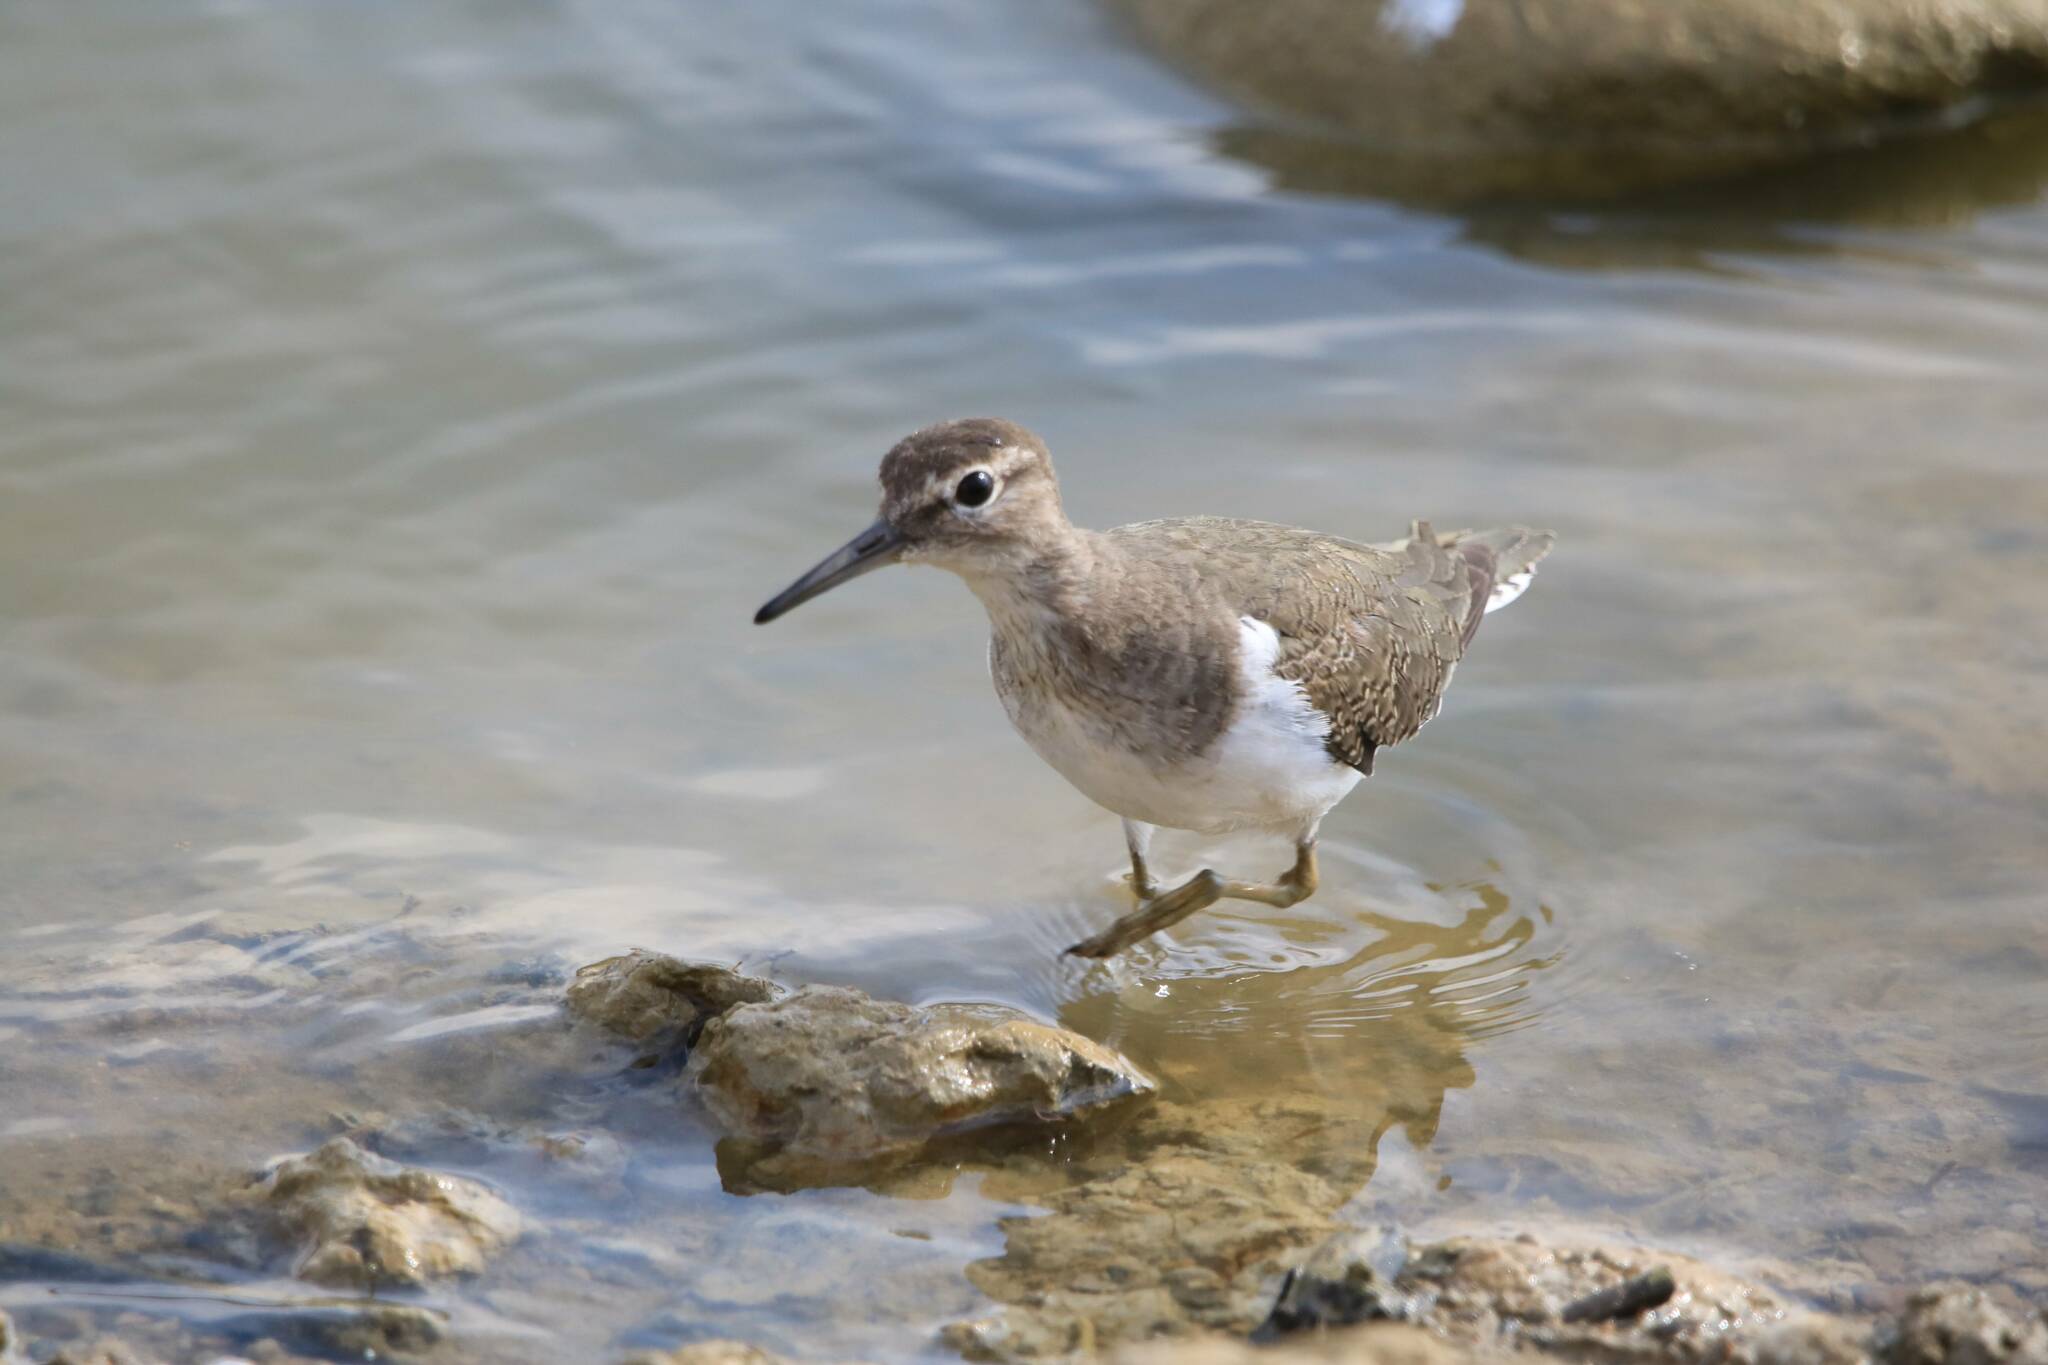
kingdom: Animalia
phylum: Chordata
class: Aves
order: Charadriiformes
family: Scolopacidae
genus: Actitis
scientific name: Actitis hypoleucos
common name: Common sandpiper
